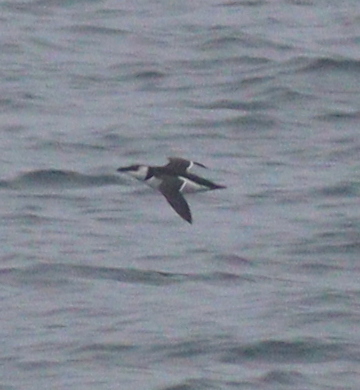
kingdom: Animalia
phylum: Chordata
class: Aves
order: Charadriiformes
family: Alcidae
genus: Alca
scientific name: Alca torda
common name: Razorbill
